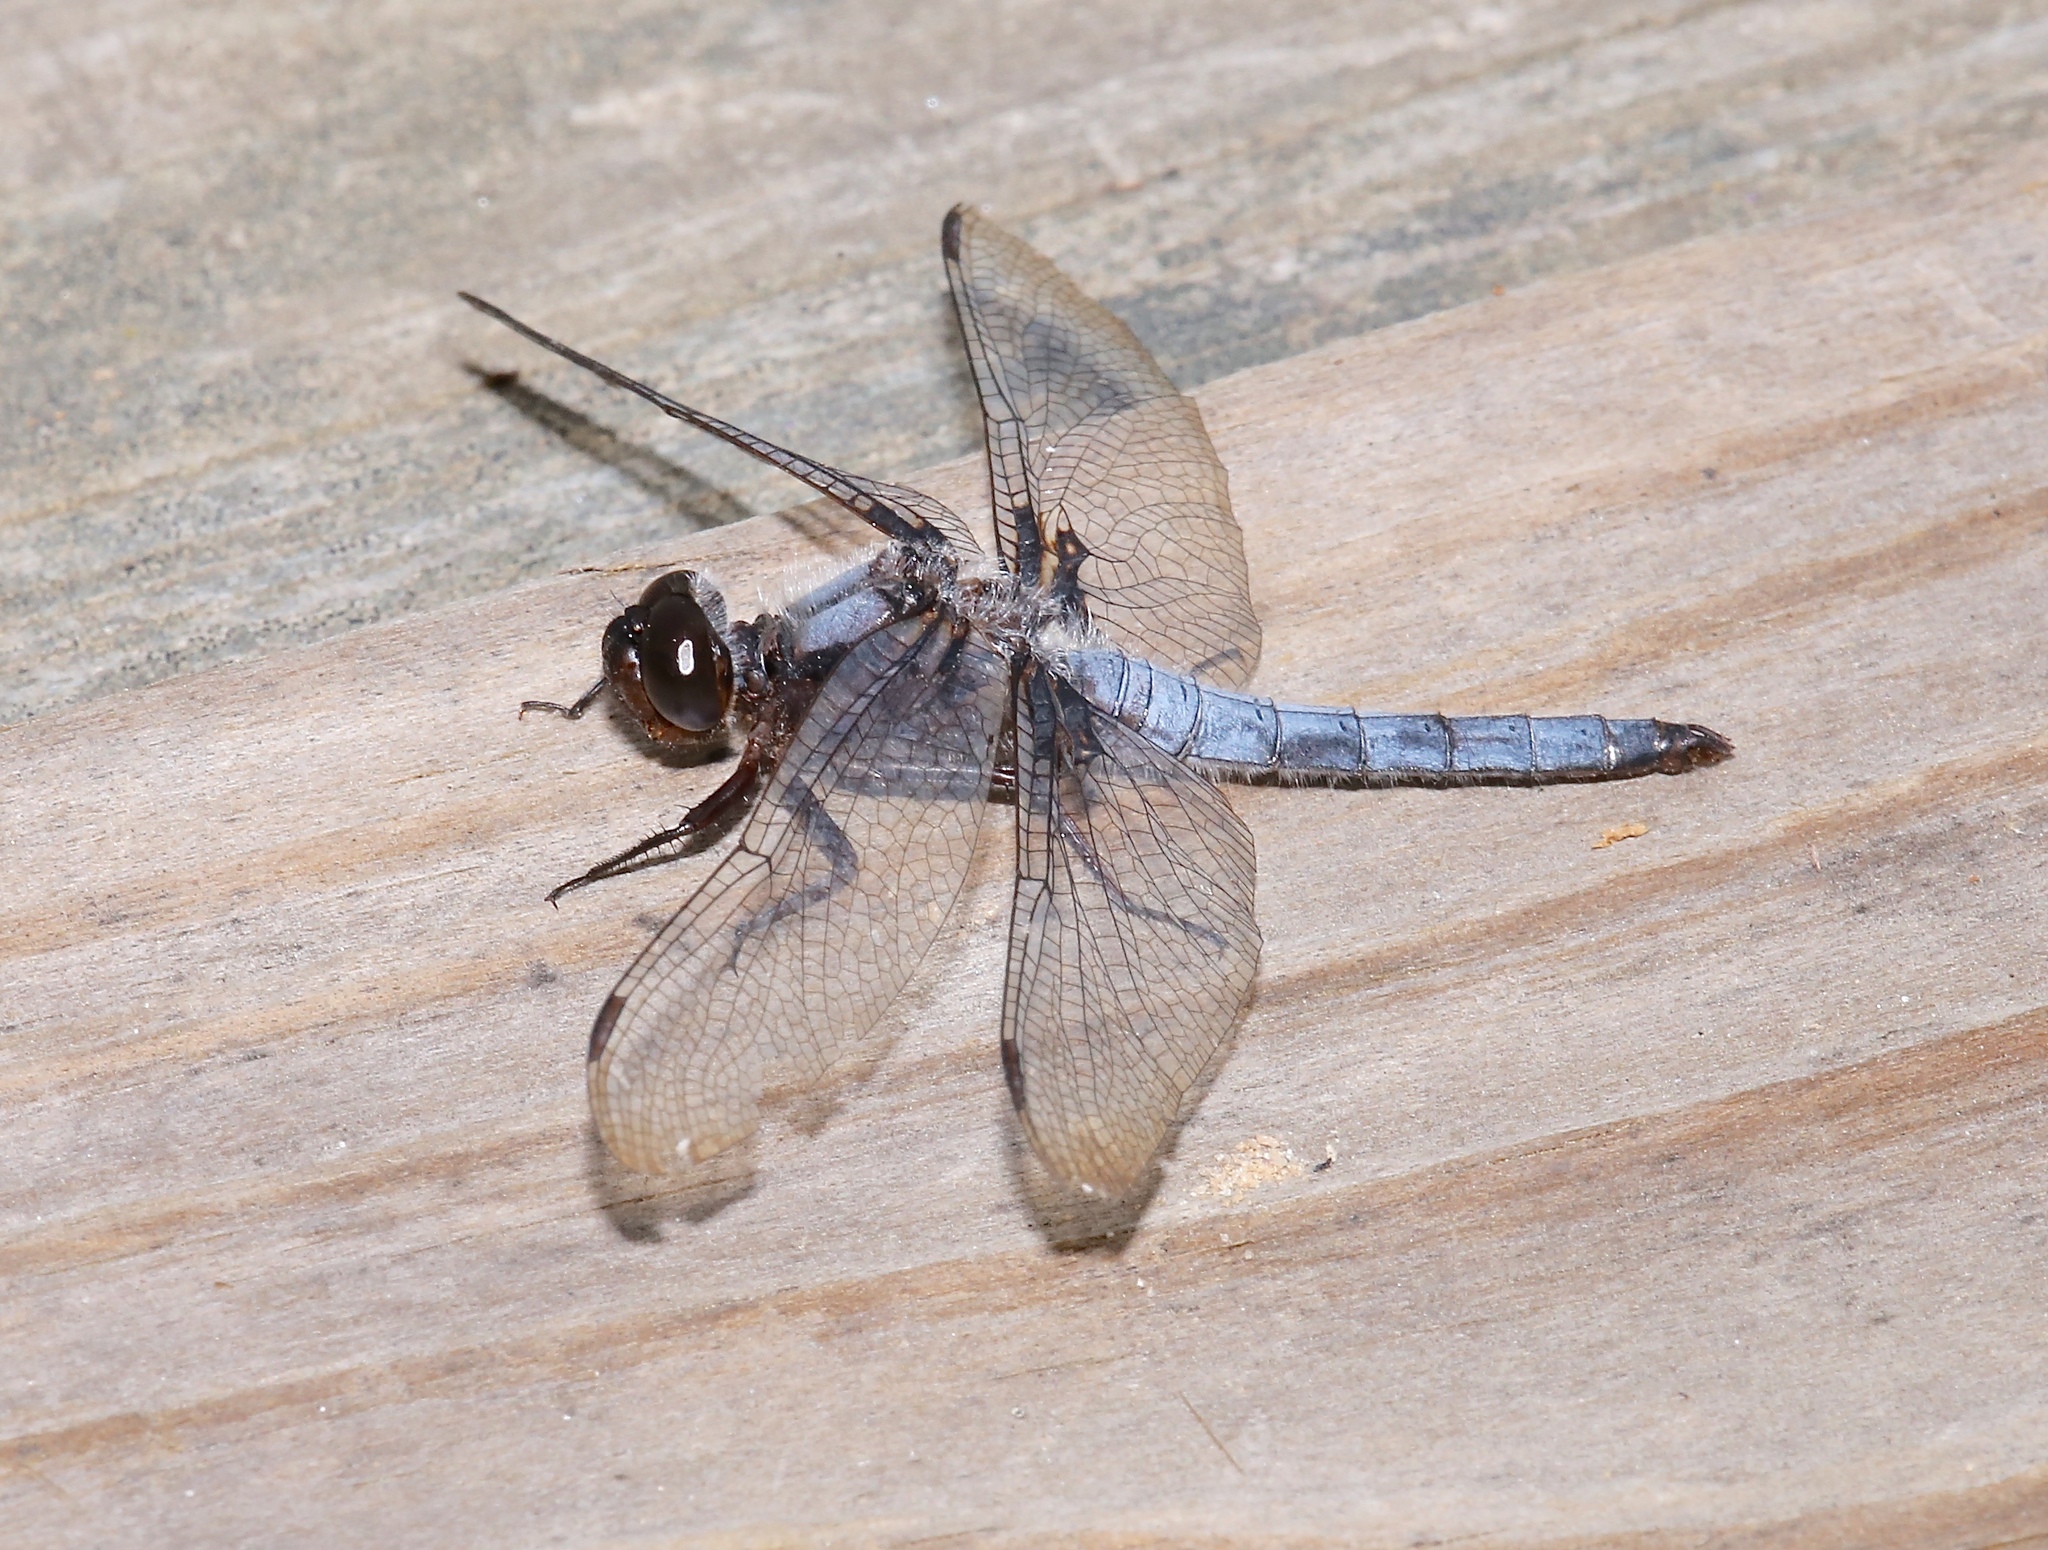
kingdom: Animalia
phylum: Arthropoda
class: Insecta
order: Odonata
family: Libellulidae
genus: Ladona
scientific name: Ladona deplanata
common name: Blue corporal
